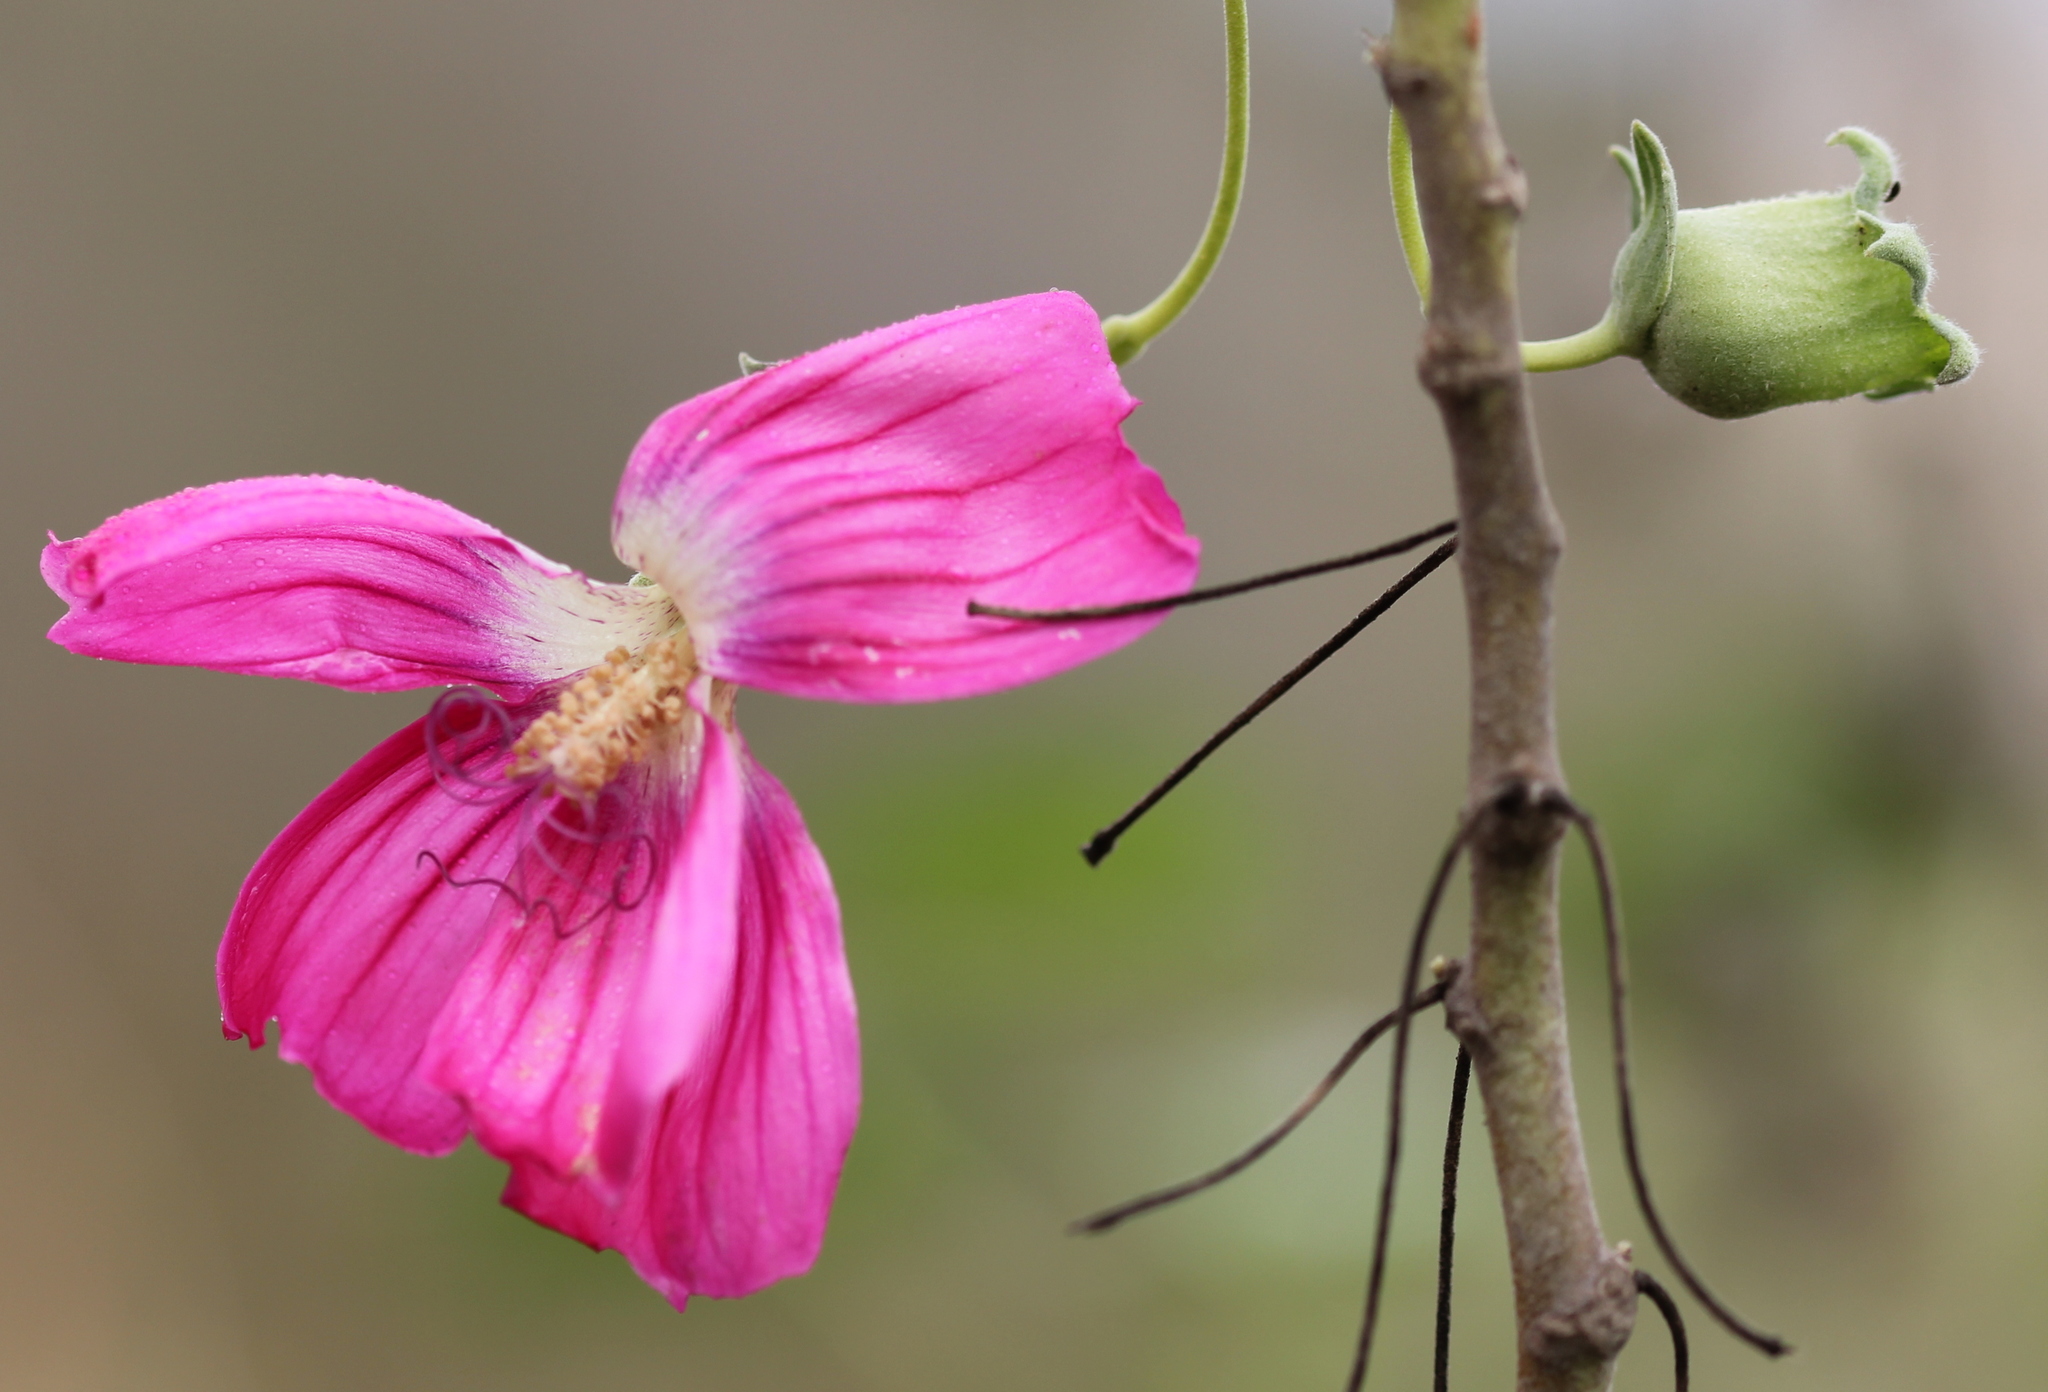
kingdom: Plantae
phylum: Tracheophyta
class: Magnoliopsida
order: Malvales
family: Malvaceae
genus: Malva
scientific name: Malva assurgentiflora
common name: Island mallow
